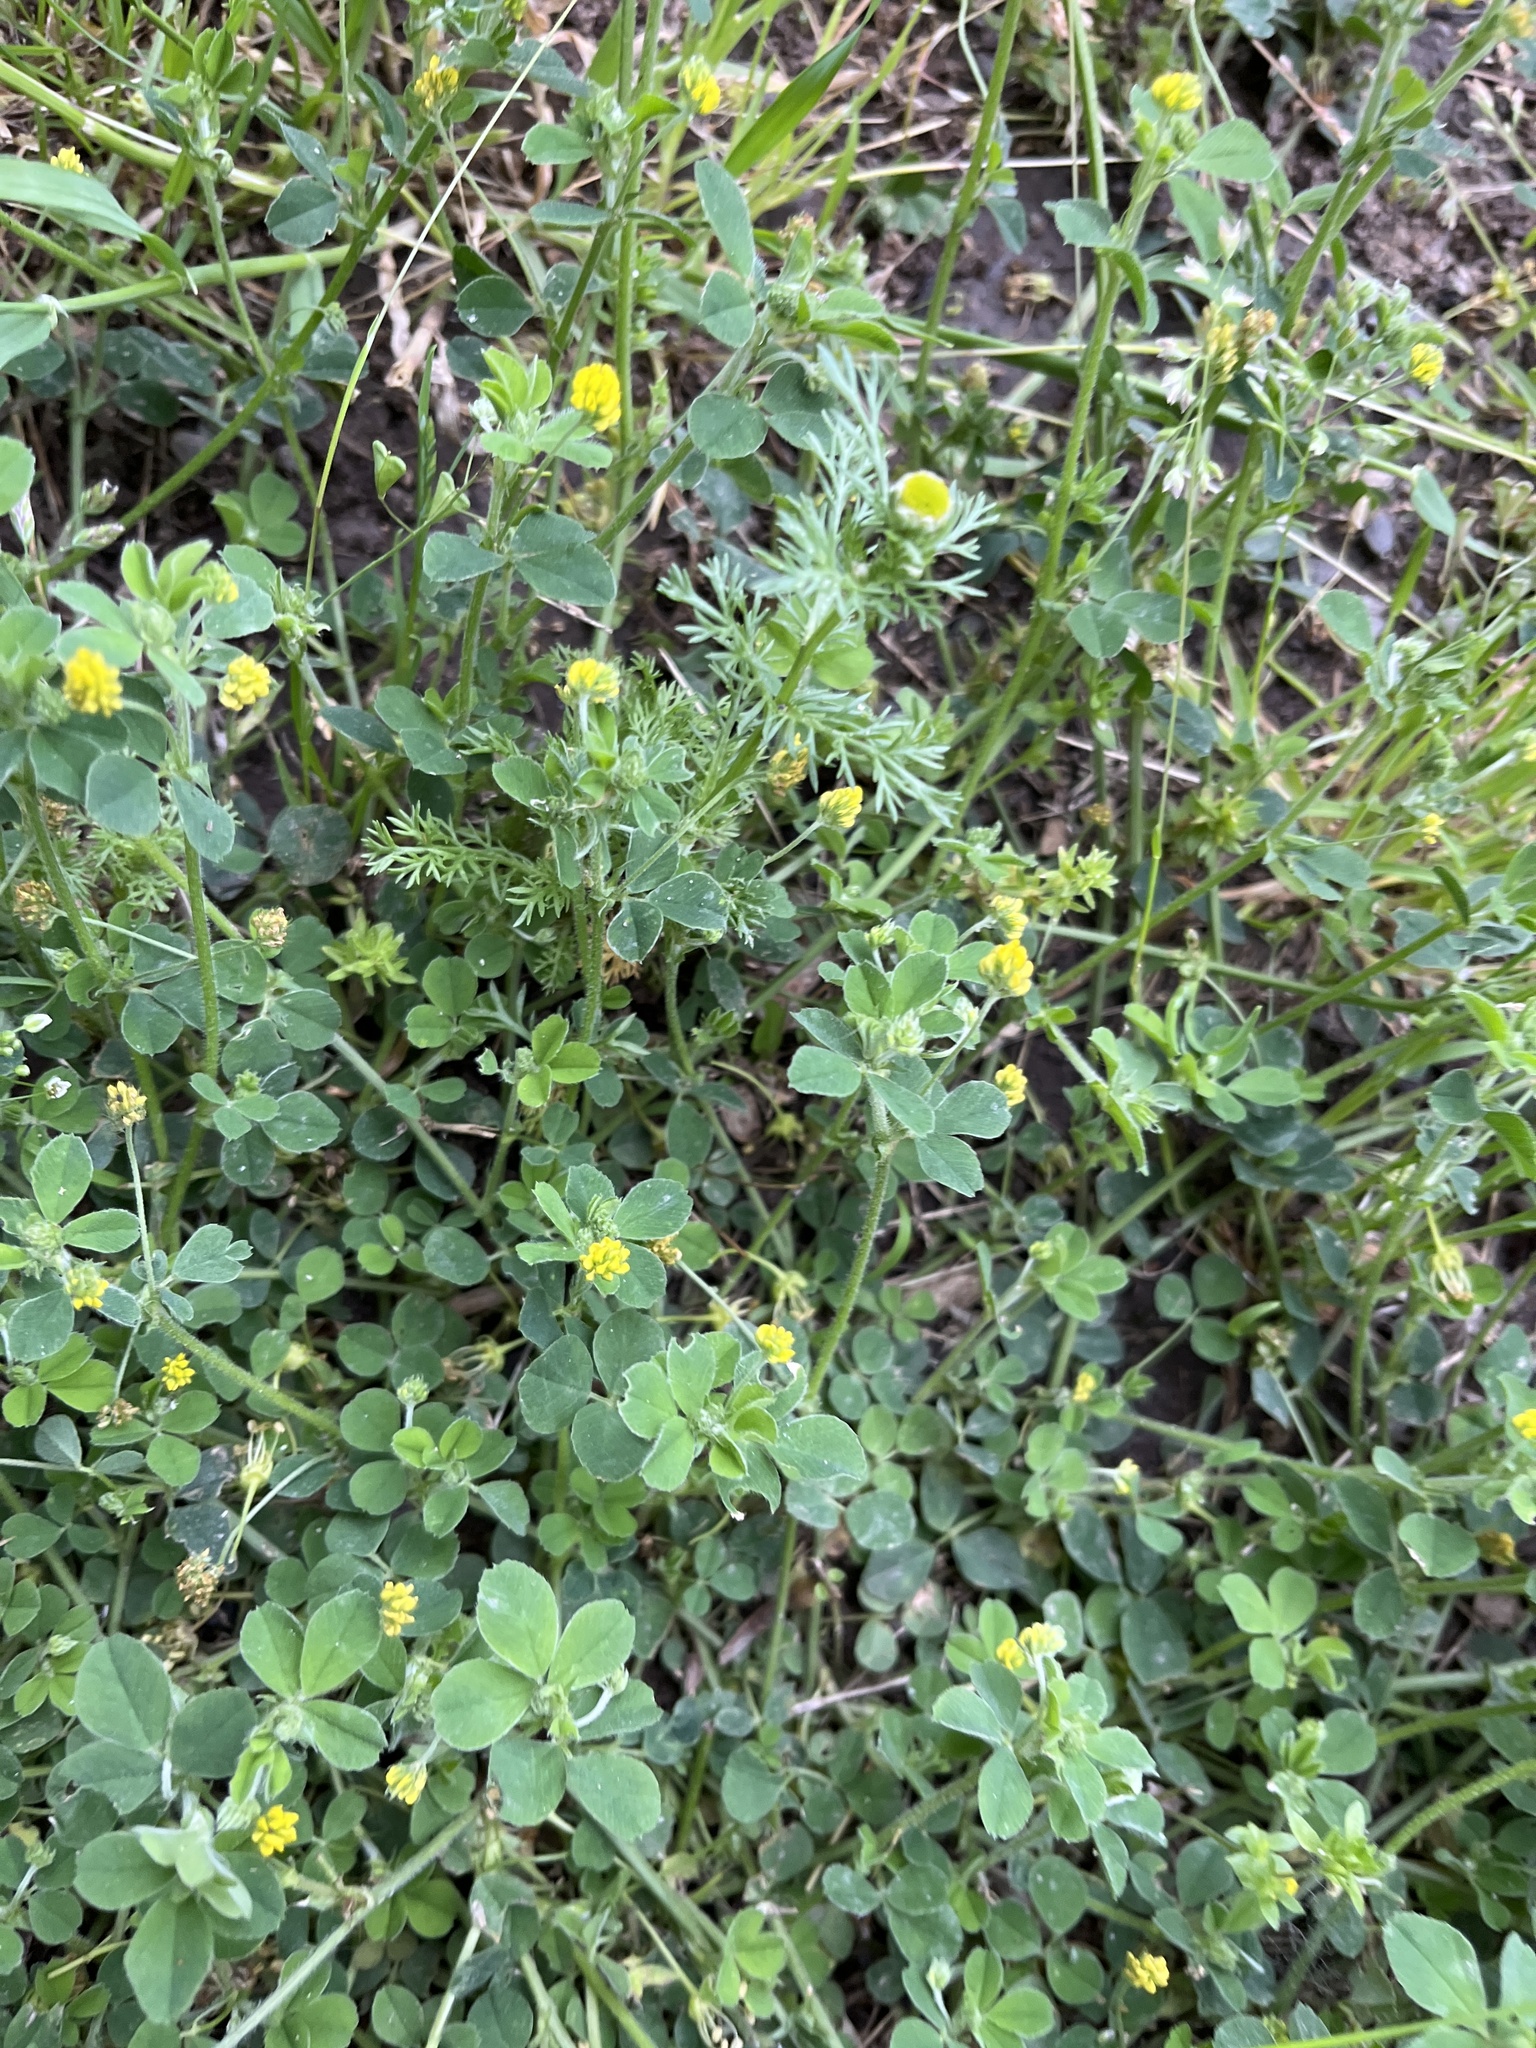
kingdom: Plantae
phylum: Tracheophyta
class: Magnoliopsida
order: Fabales
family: Fabaceae
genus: Medicago
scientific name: Medicago lupulina
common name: Black medick
